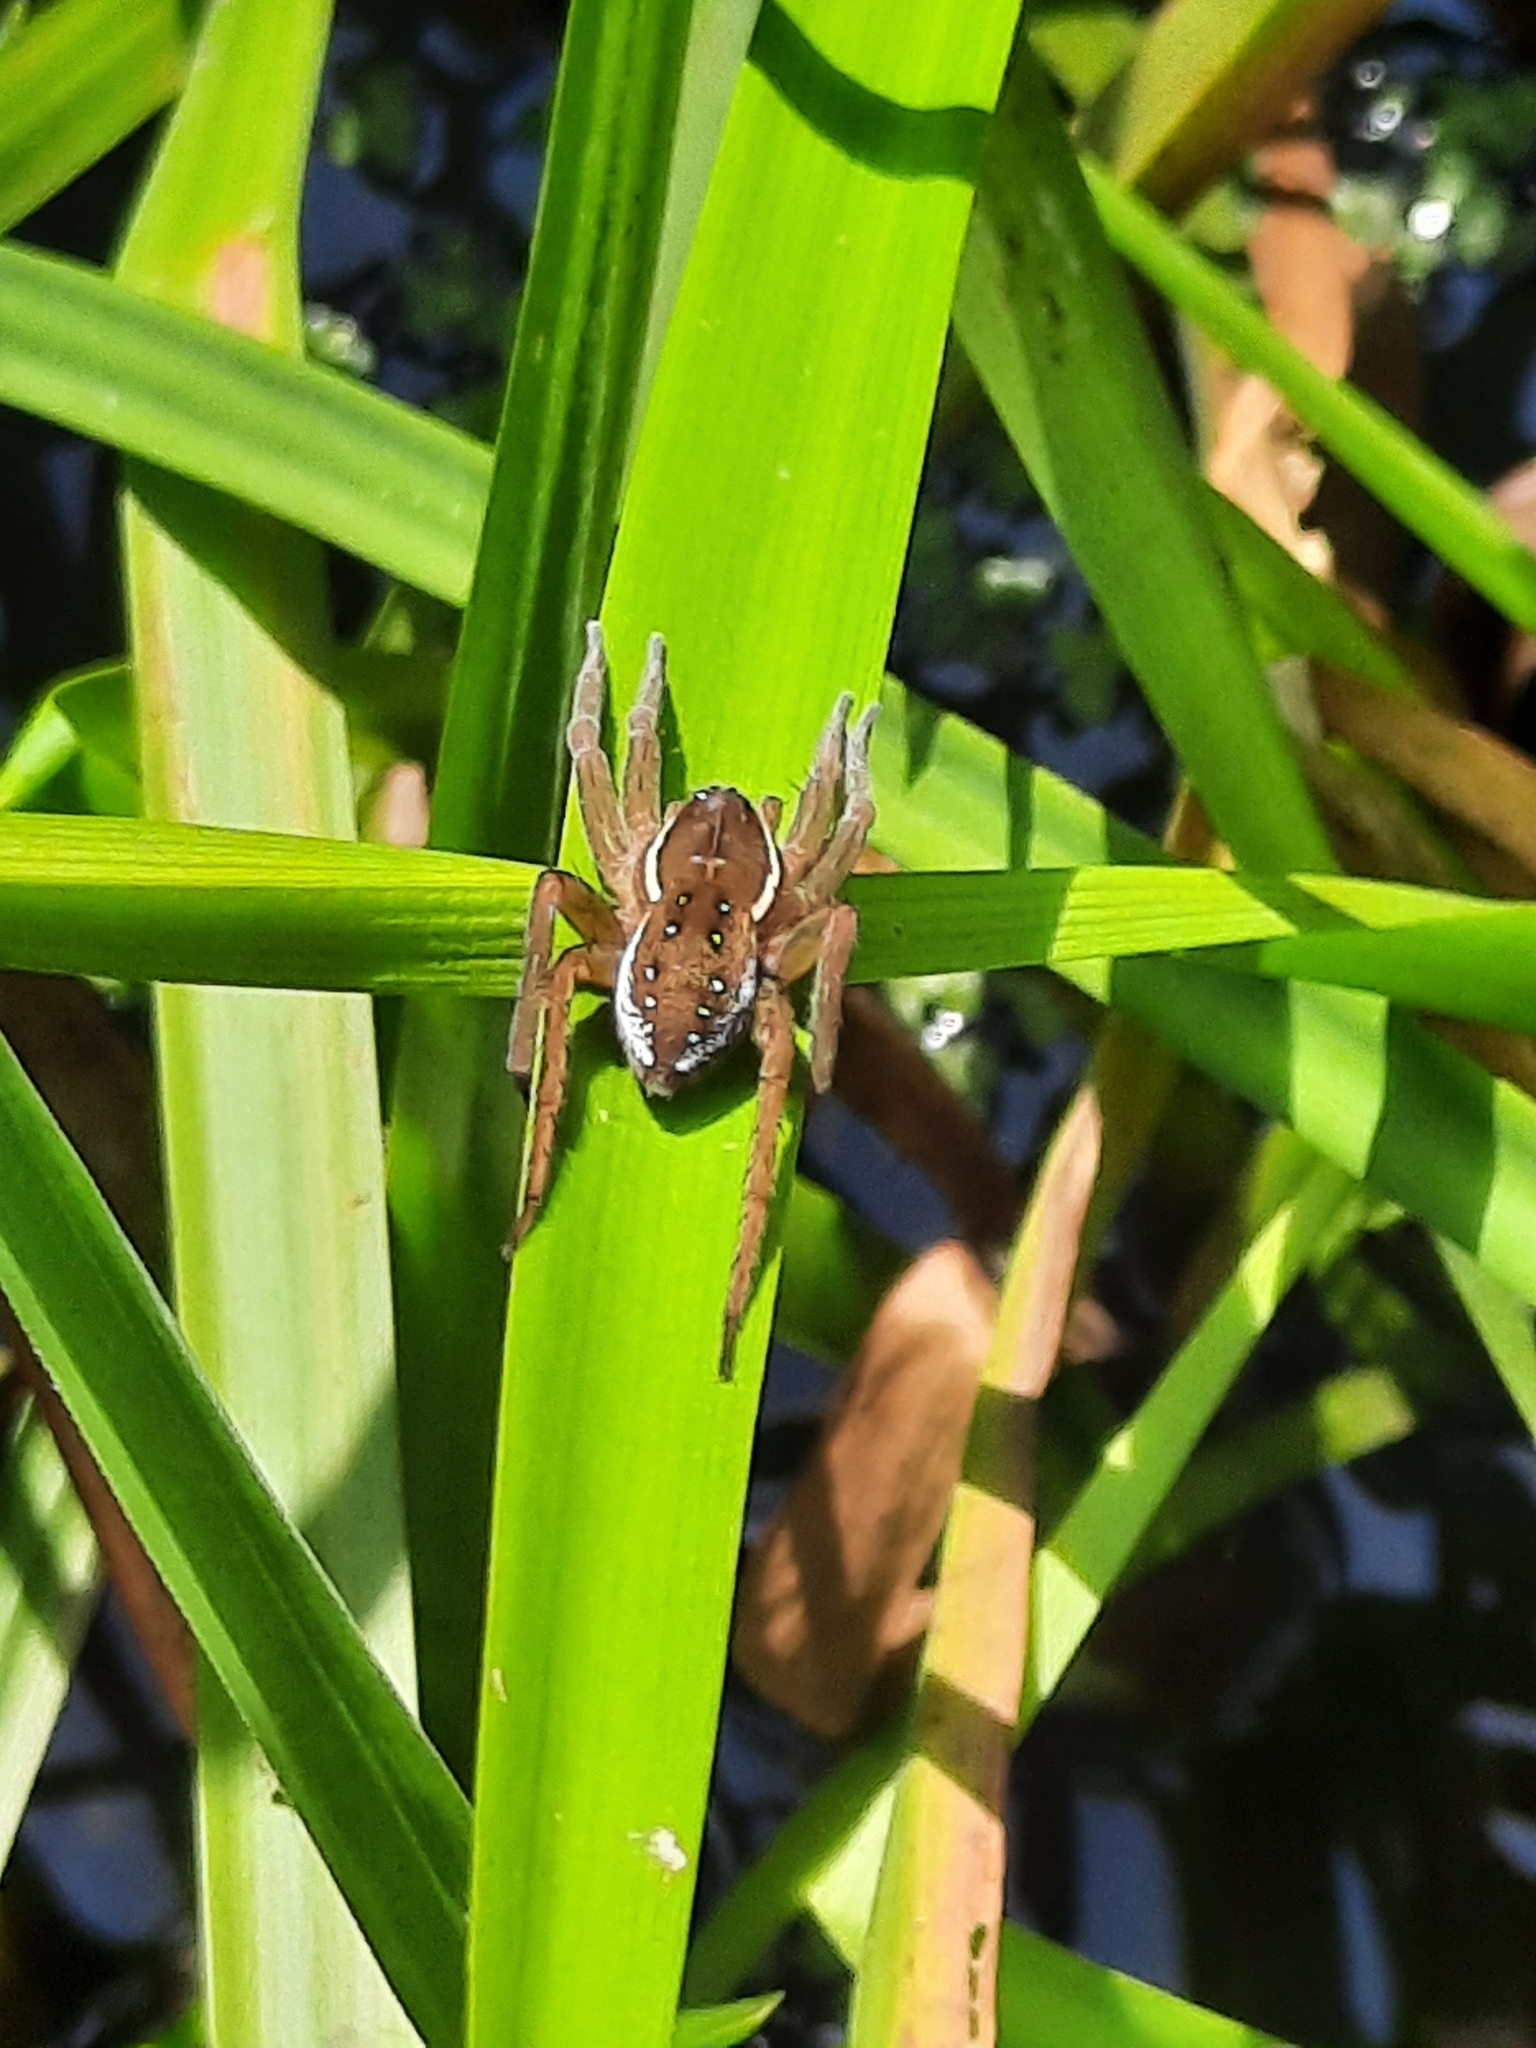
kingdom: Animalia
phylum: Arthropoda
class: Arachnida
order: Araneae
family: Pisauridae
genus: Dolomedes
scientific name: Dolomedes triton
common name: Six-spotted fishing spider
